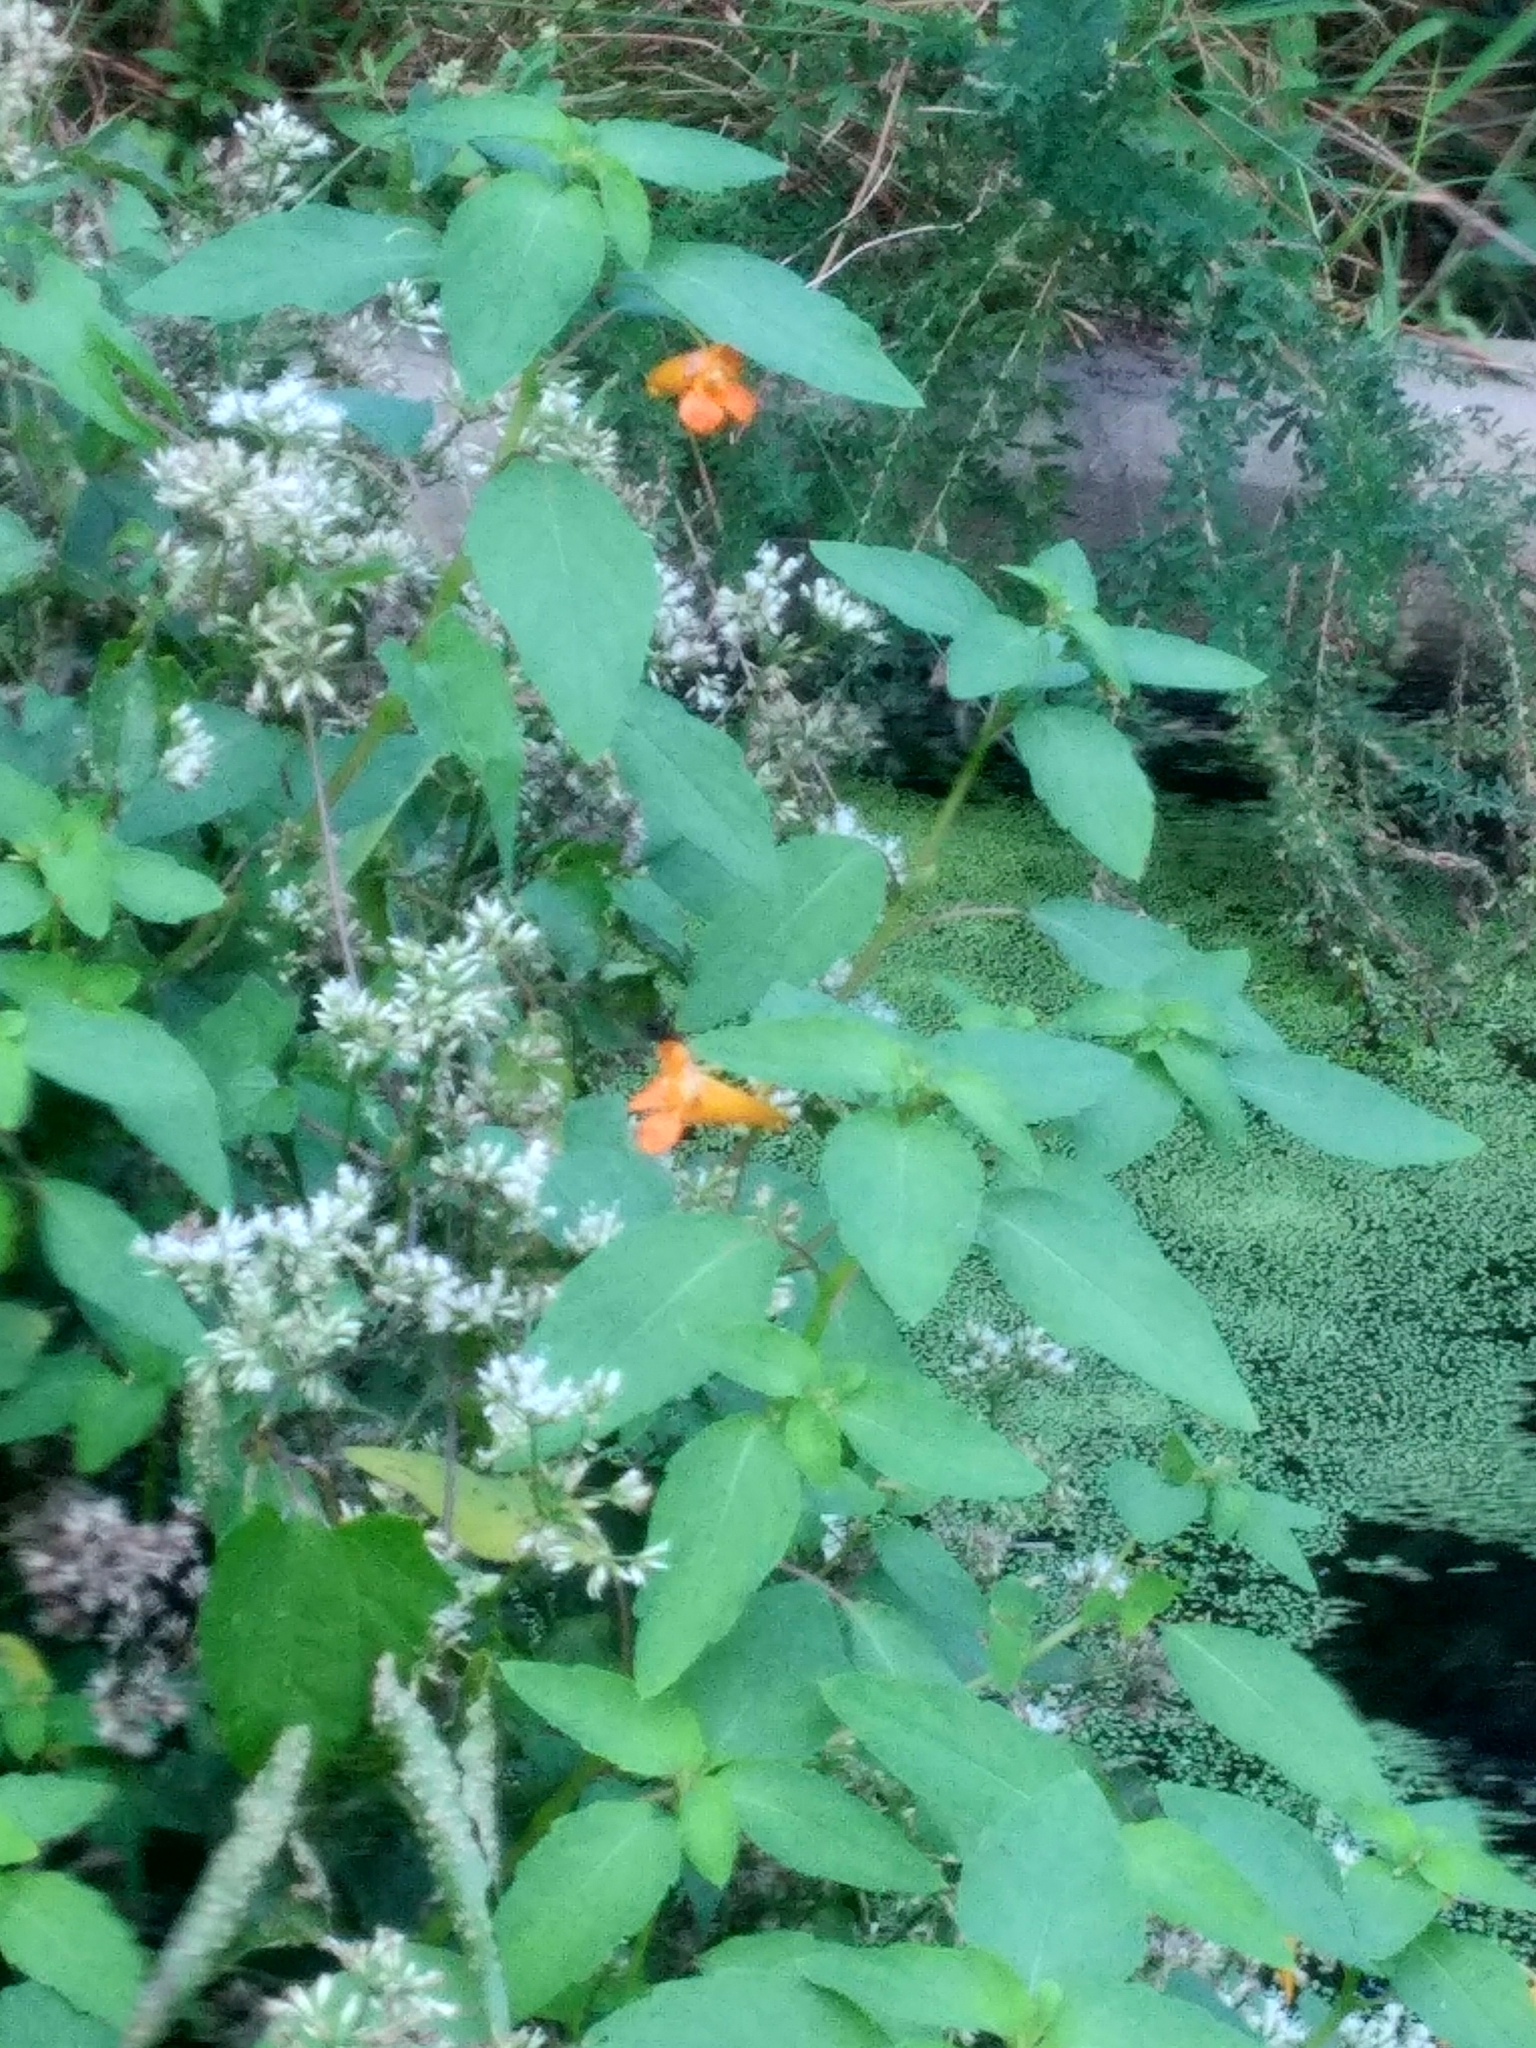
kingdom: Plantae
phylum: Tracheophyta
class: Magnoliopsida
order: Ericales
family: Balsaminaceae
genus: Impatiens
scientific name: Impatiens capensis
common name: Orange balsam
